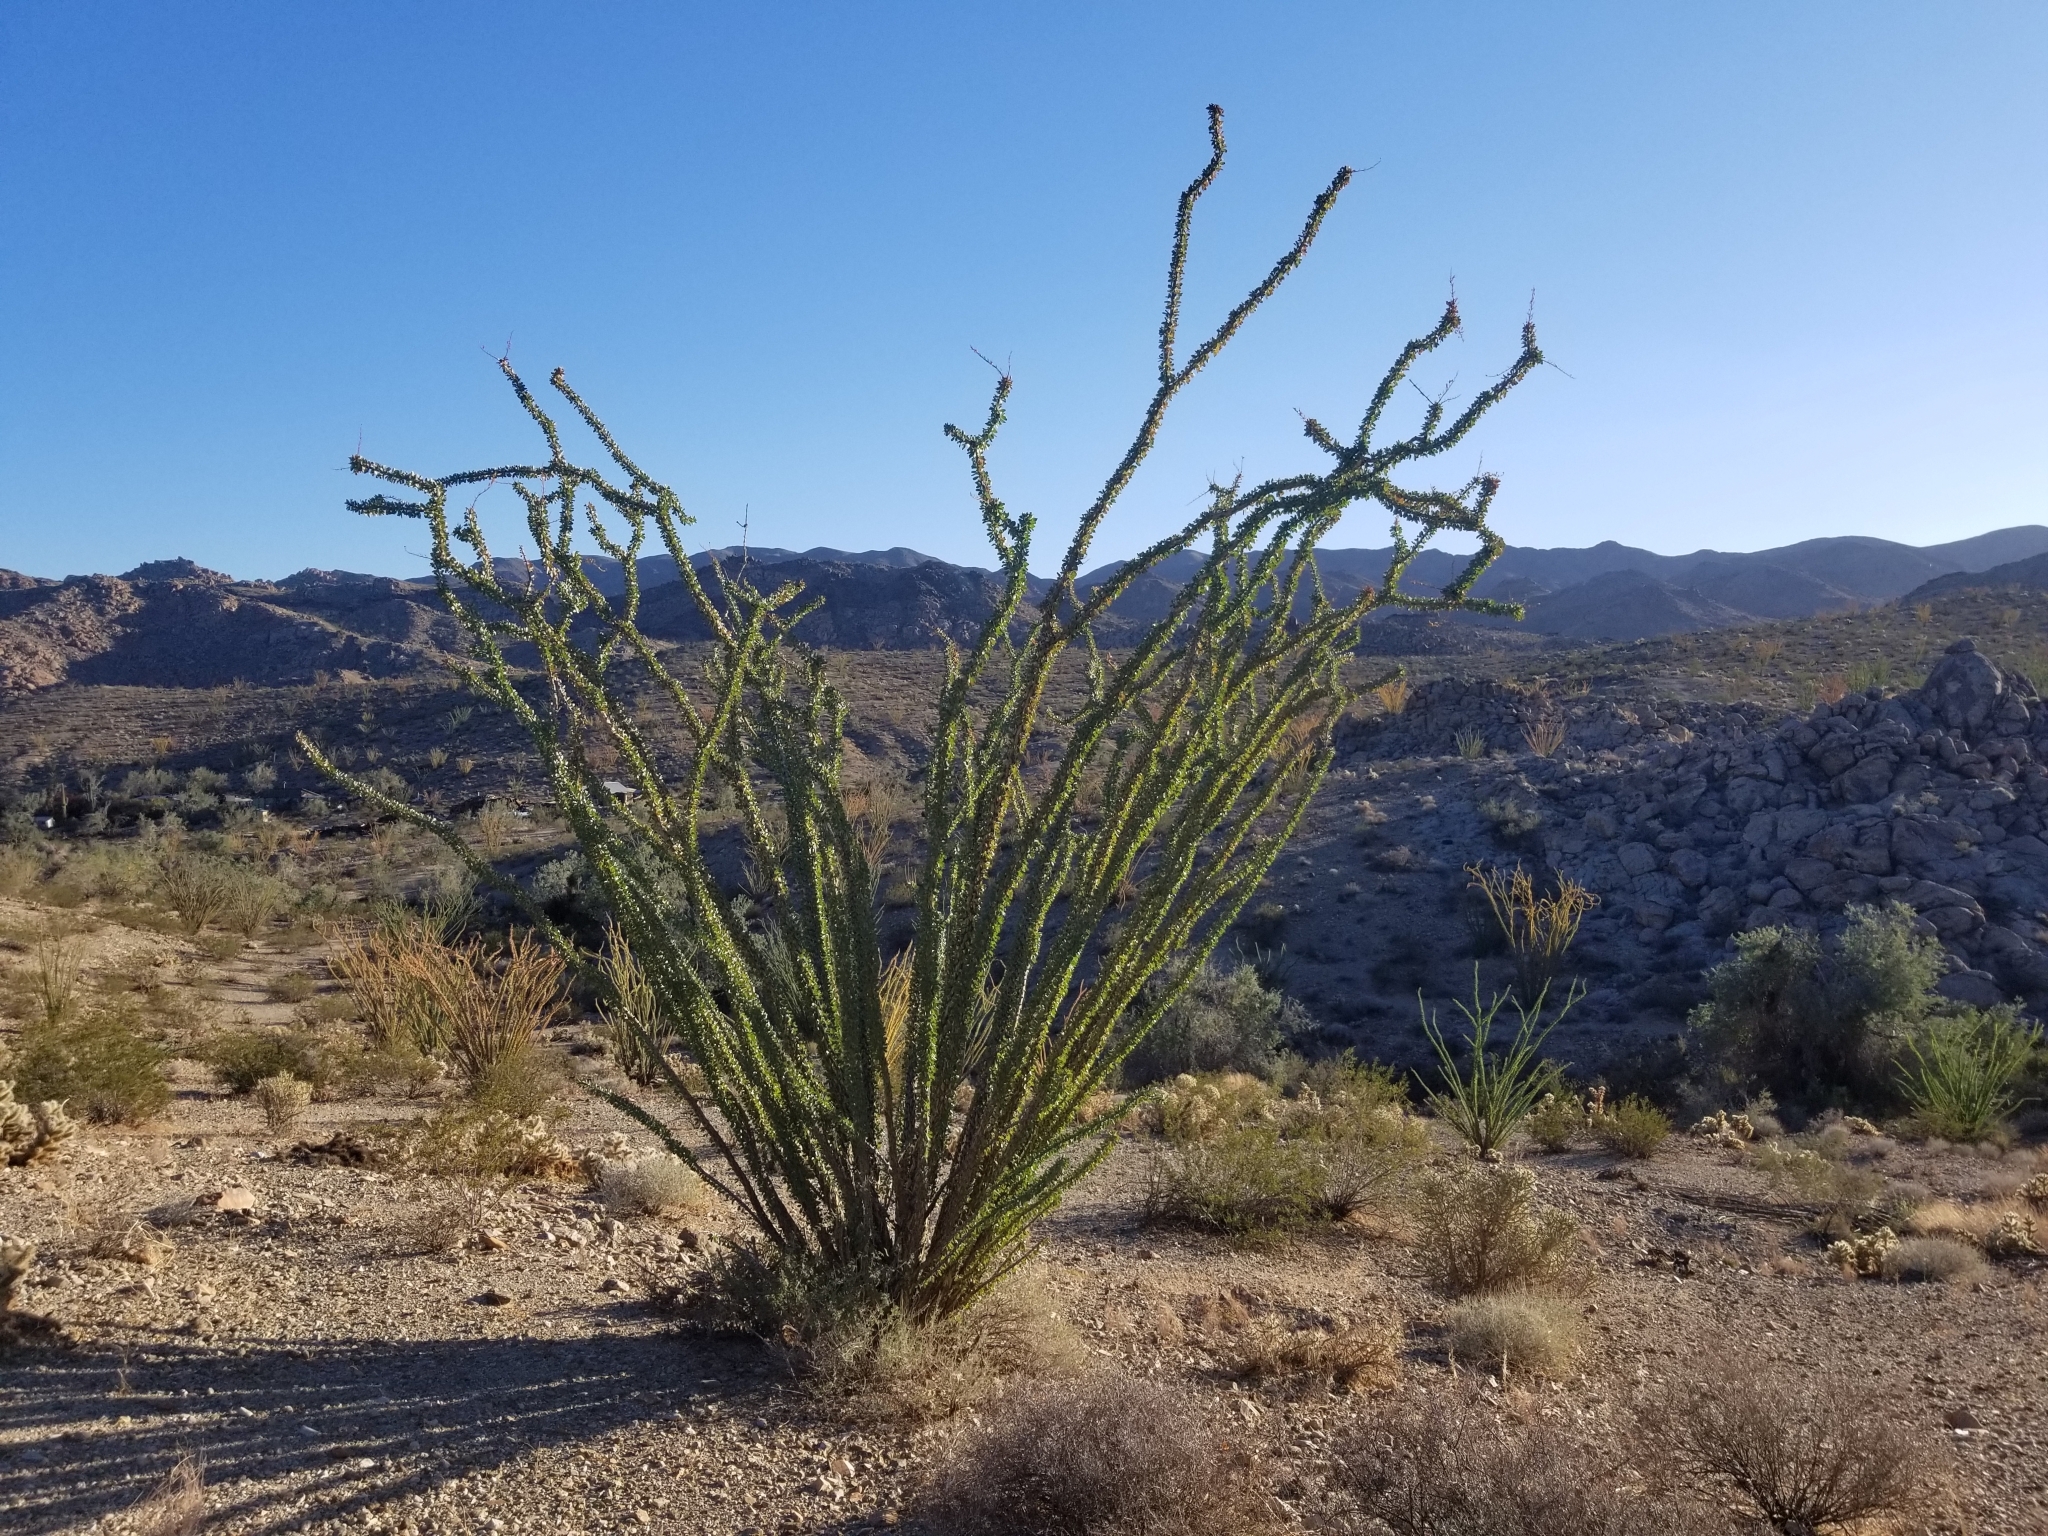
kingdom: Plantae
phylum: Tracheophyta
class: Magnoliopsida
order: Ericales
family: Fouquieriaceae
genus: Fouquieria
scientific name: Fouquieria splendens
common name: Vine-cactus
